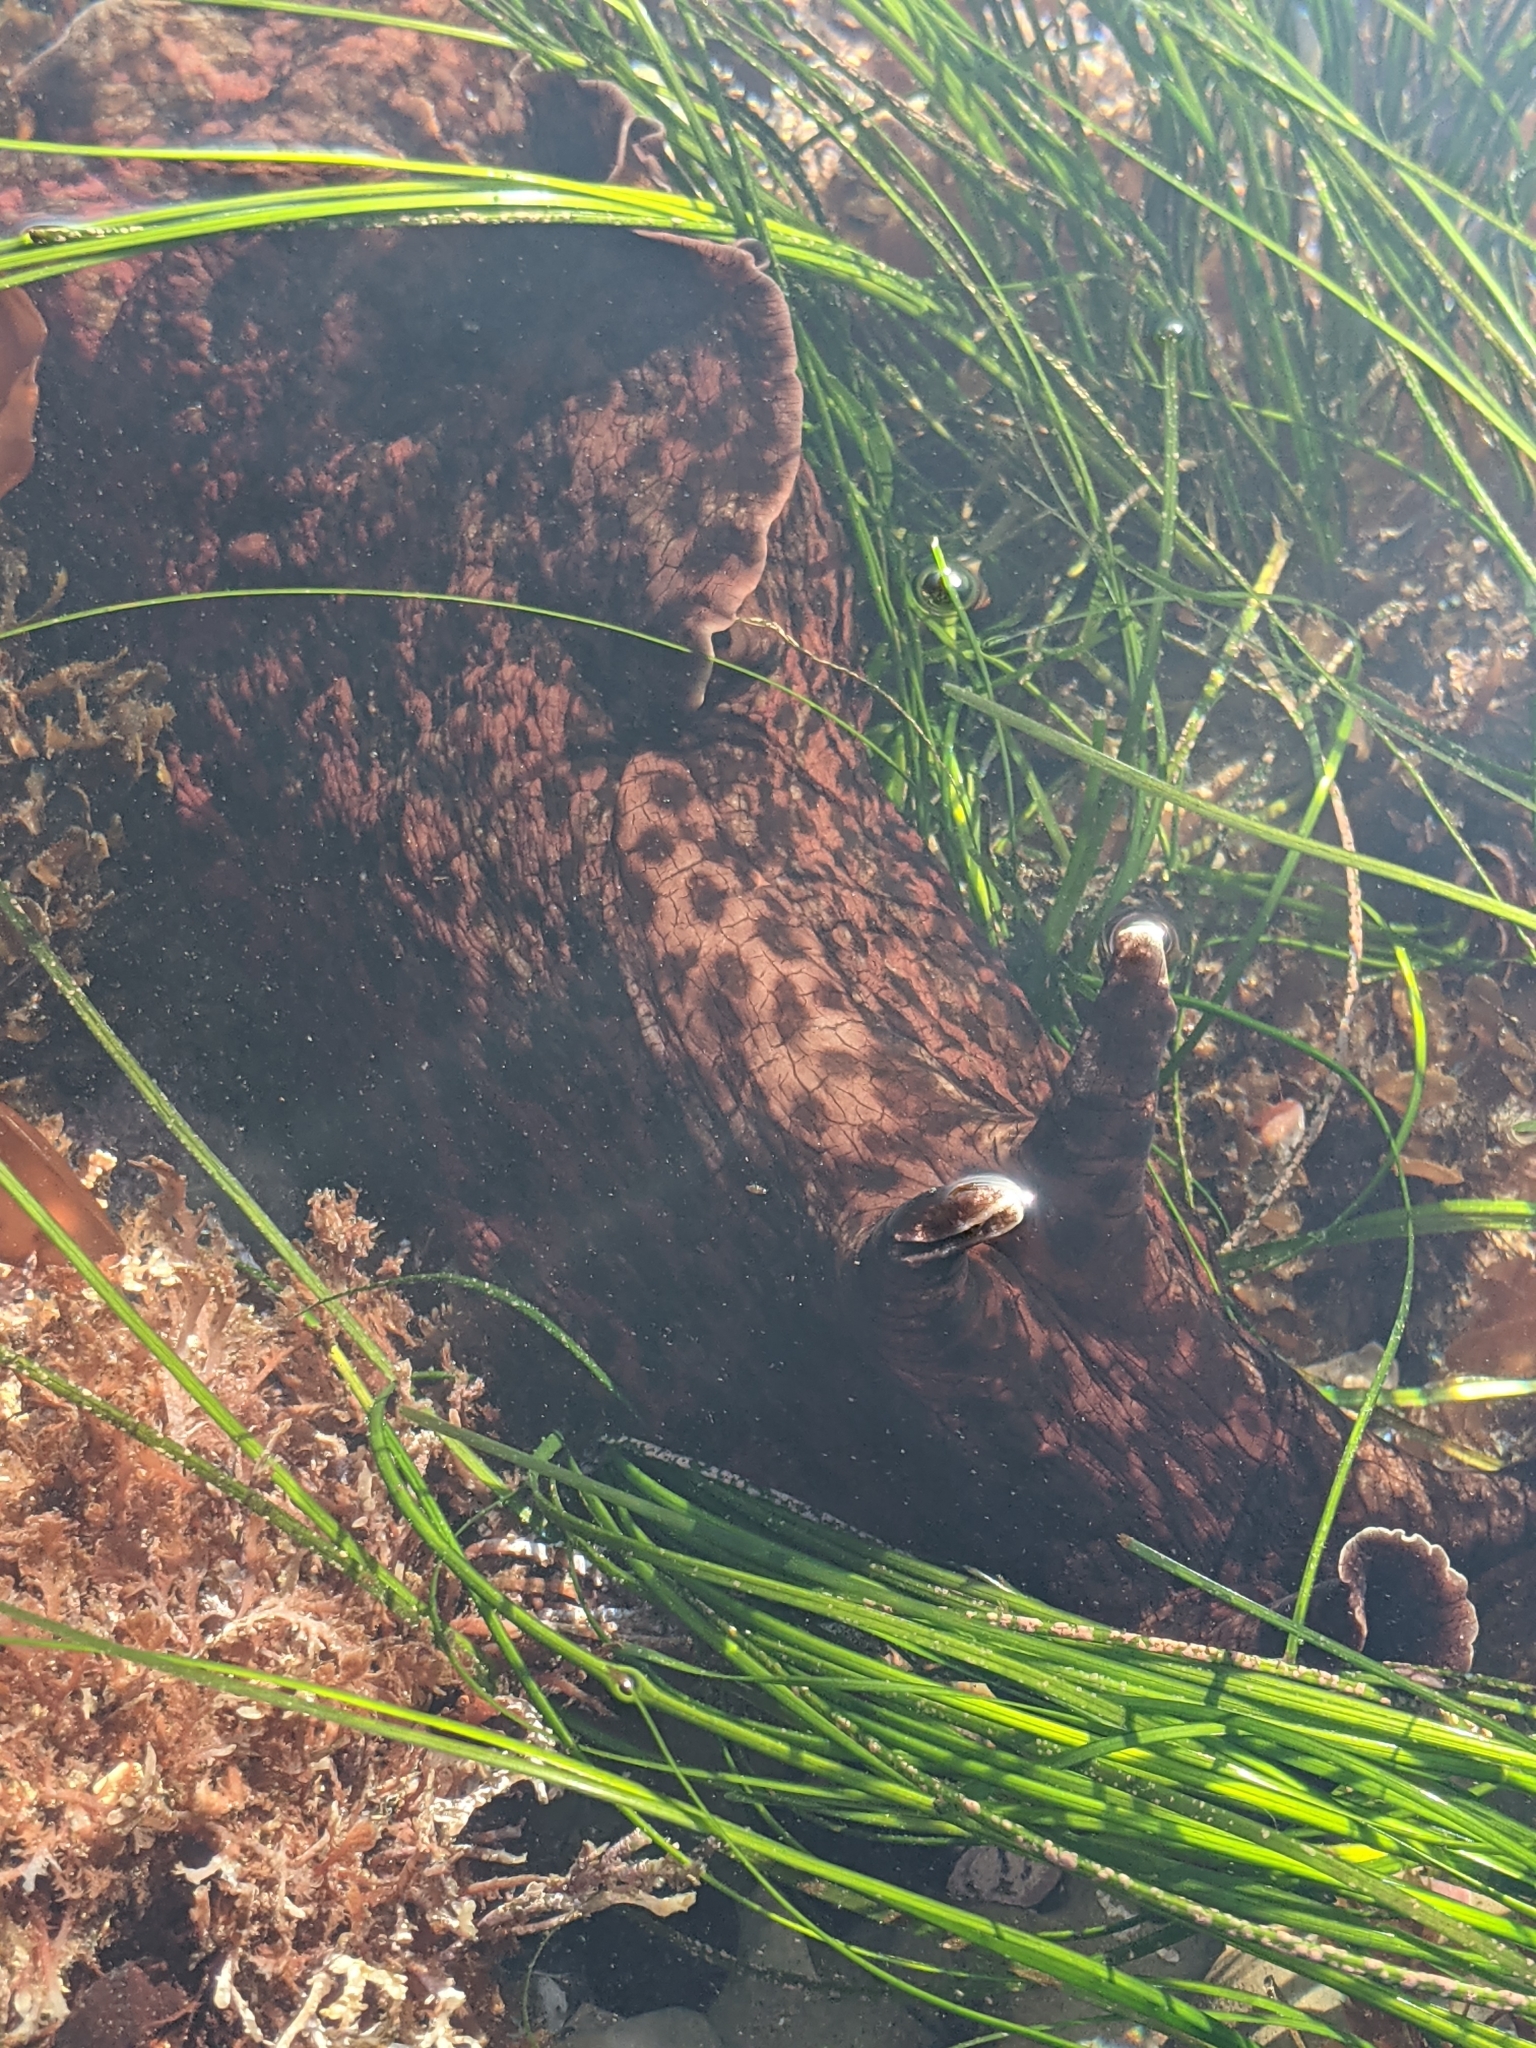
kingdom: Animalia
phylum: Mollusca
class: Gastropoda
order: Aplysiida
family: Aplysiidae
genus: Aplysia
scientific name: Aplysia californica
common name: California seahare
